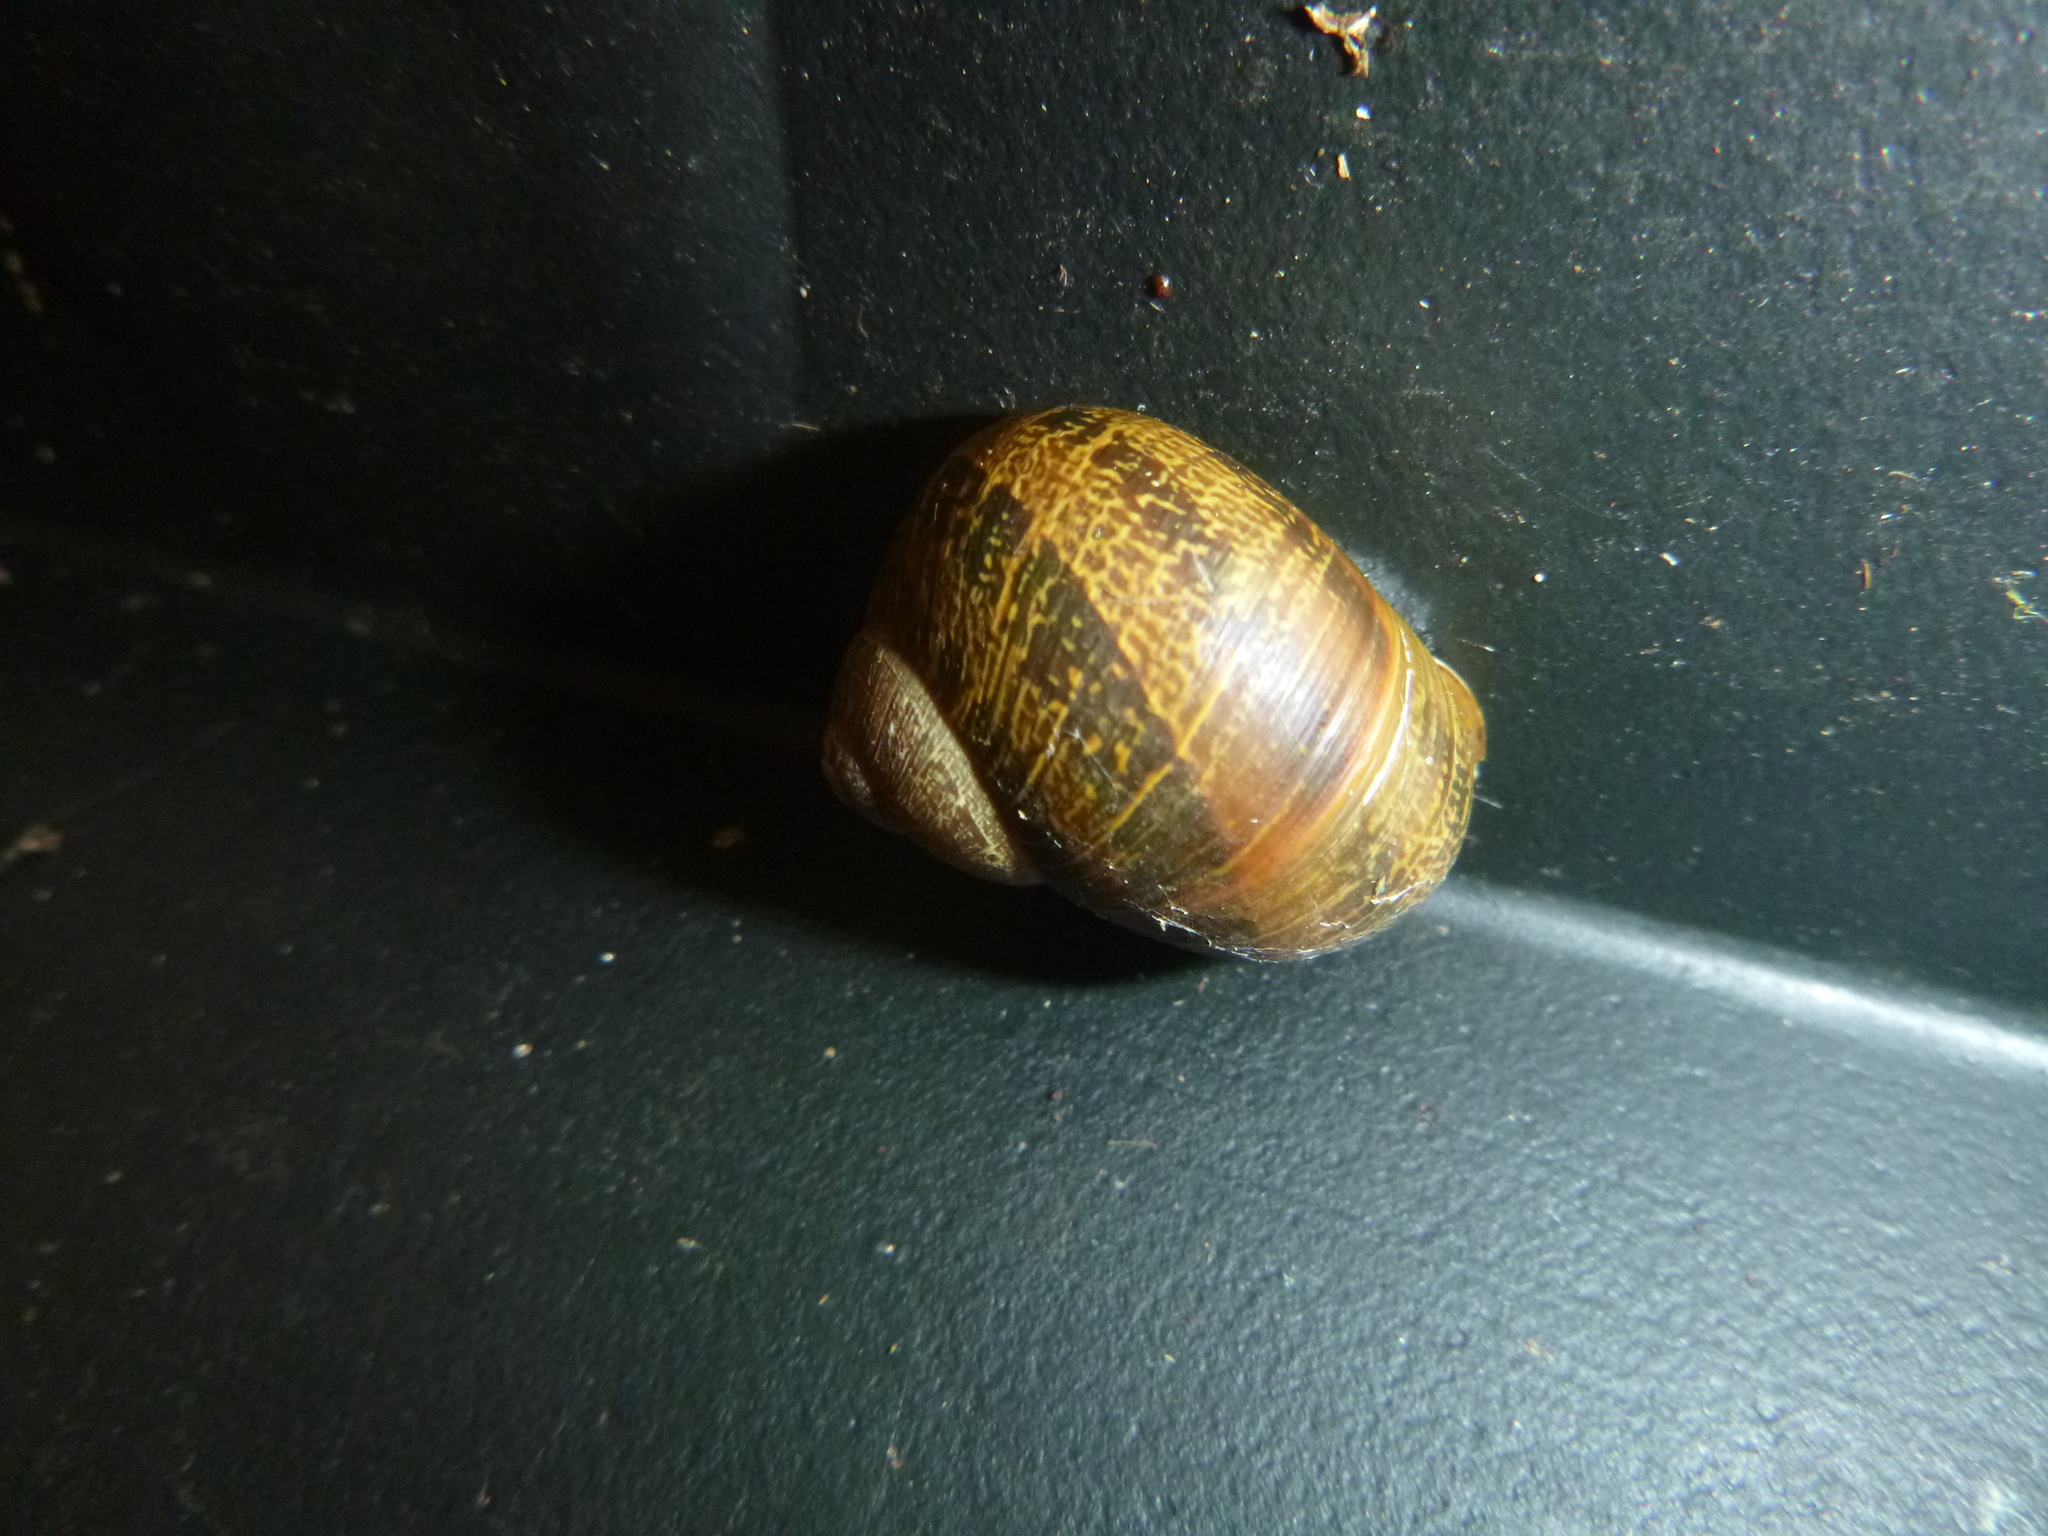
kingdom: Animalia
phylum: Mollusca
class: Gastropoda
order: Stylommatophora
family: Helicidae
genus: Cornu
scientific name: Cornu aspersum
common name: Brown garden snail
